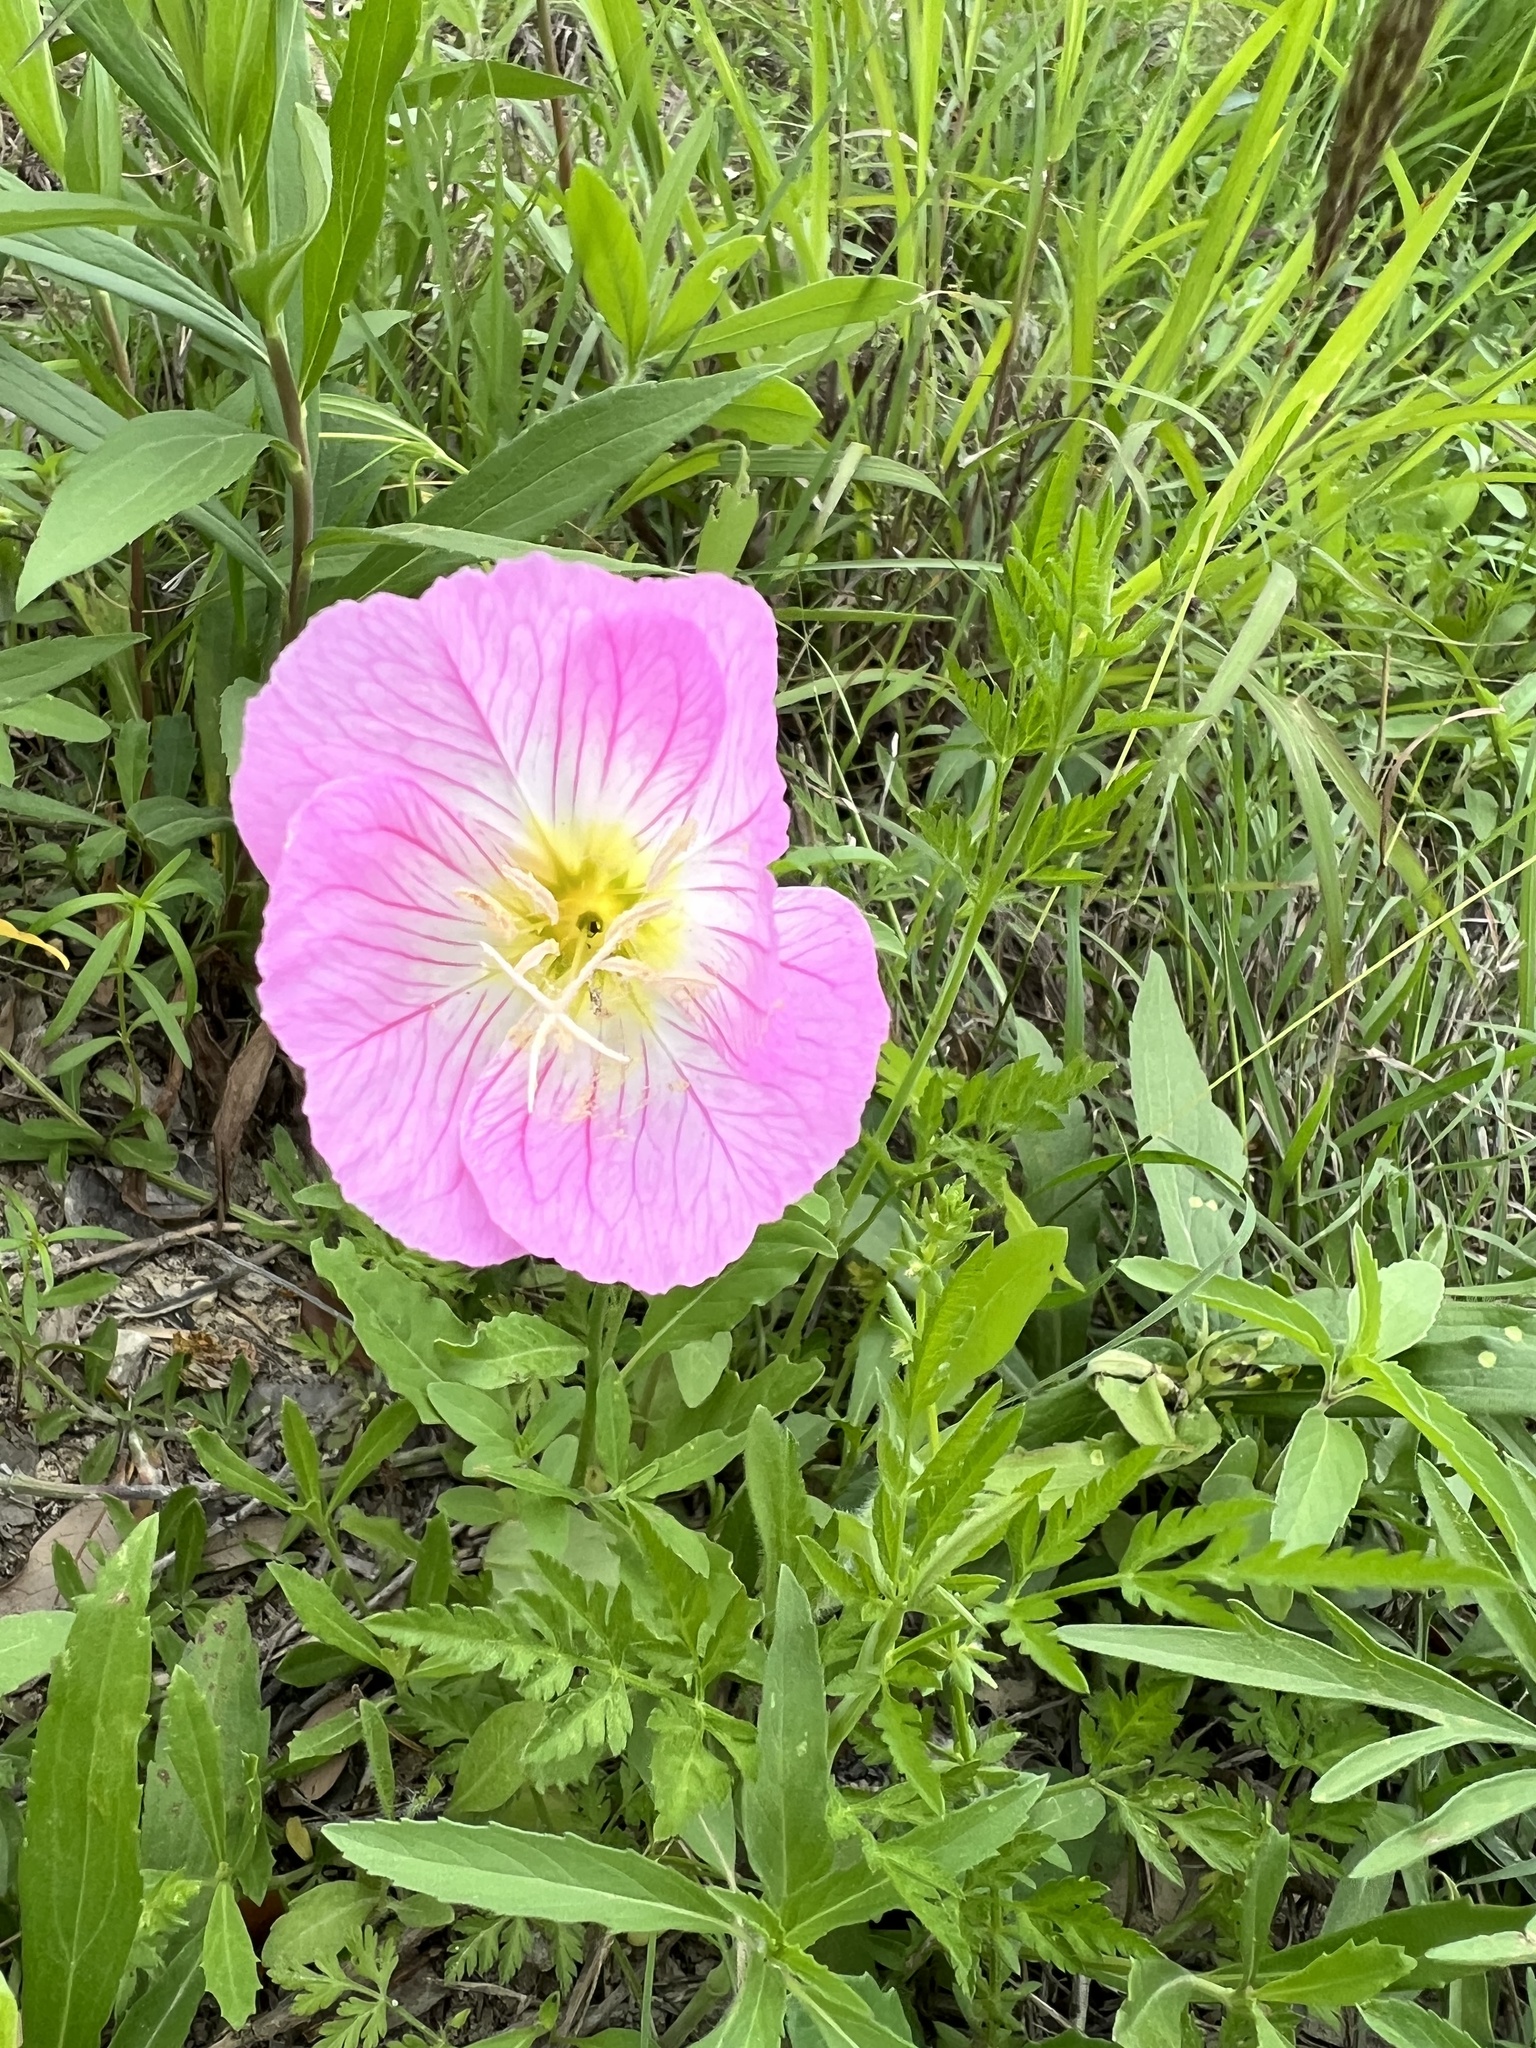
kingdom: Plantae
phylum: Tracheophyta
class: Magnoliopsida
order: Myrtales
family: Onagraceae
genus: Oenothera
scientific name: Oenothera speciosa
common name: White evening-primrose
